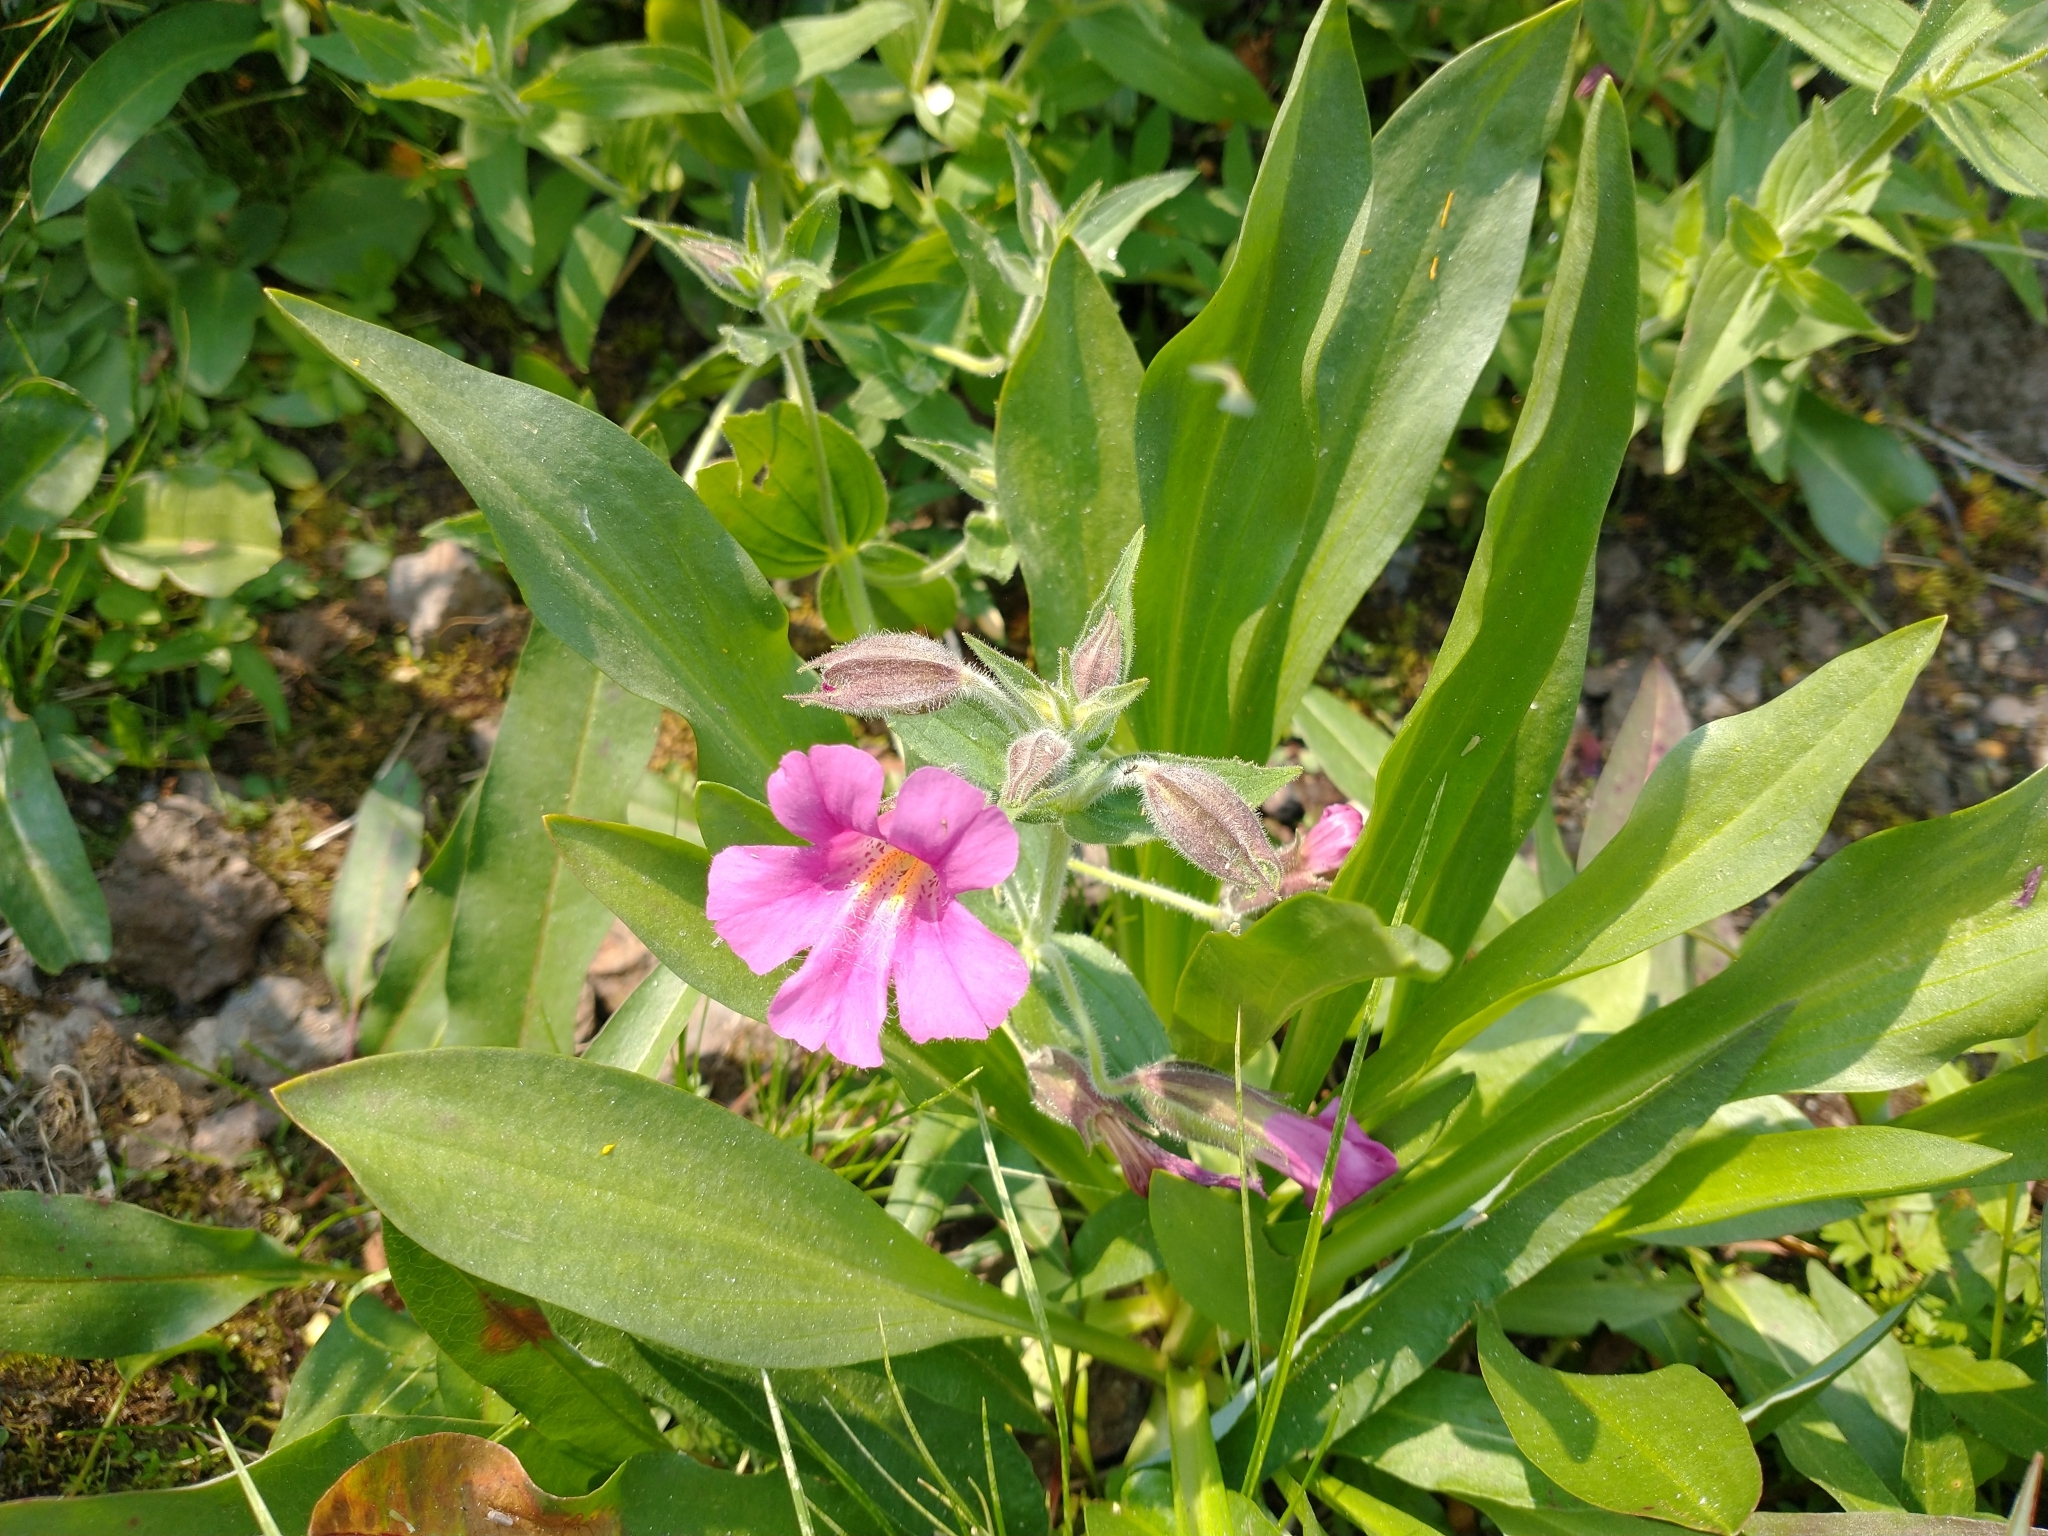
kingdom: Plantae
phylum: Tracheophyta
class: Magnoliopsida
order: Lamiales
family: Phrymaceae
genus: Erythranthe
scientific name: Erythranthe lewisii
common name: Lewis's monkey-flower
